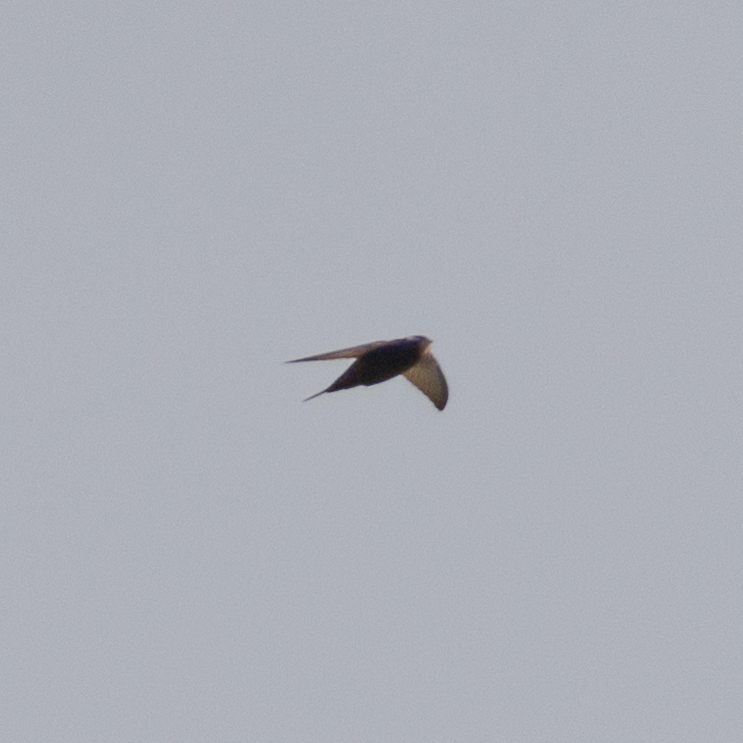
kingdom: Animalia
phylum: Chordata
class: Aves
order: Apodiformes
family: Apodidae
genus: Apus
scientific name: Apus apus
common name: Common swift
